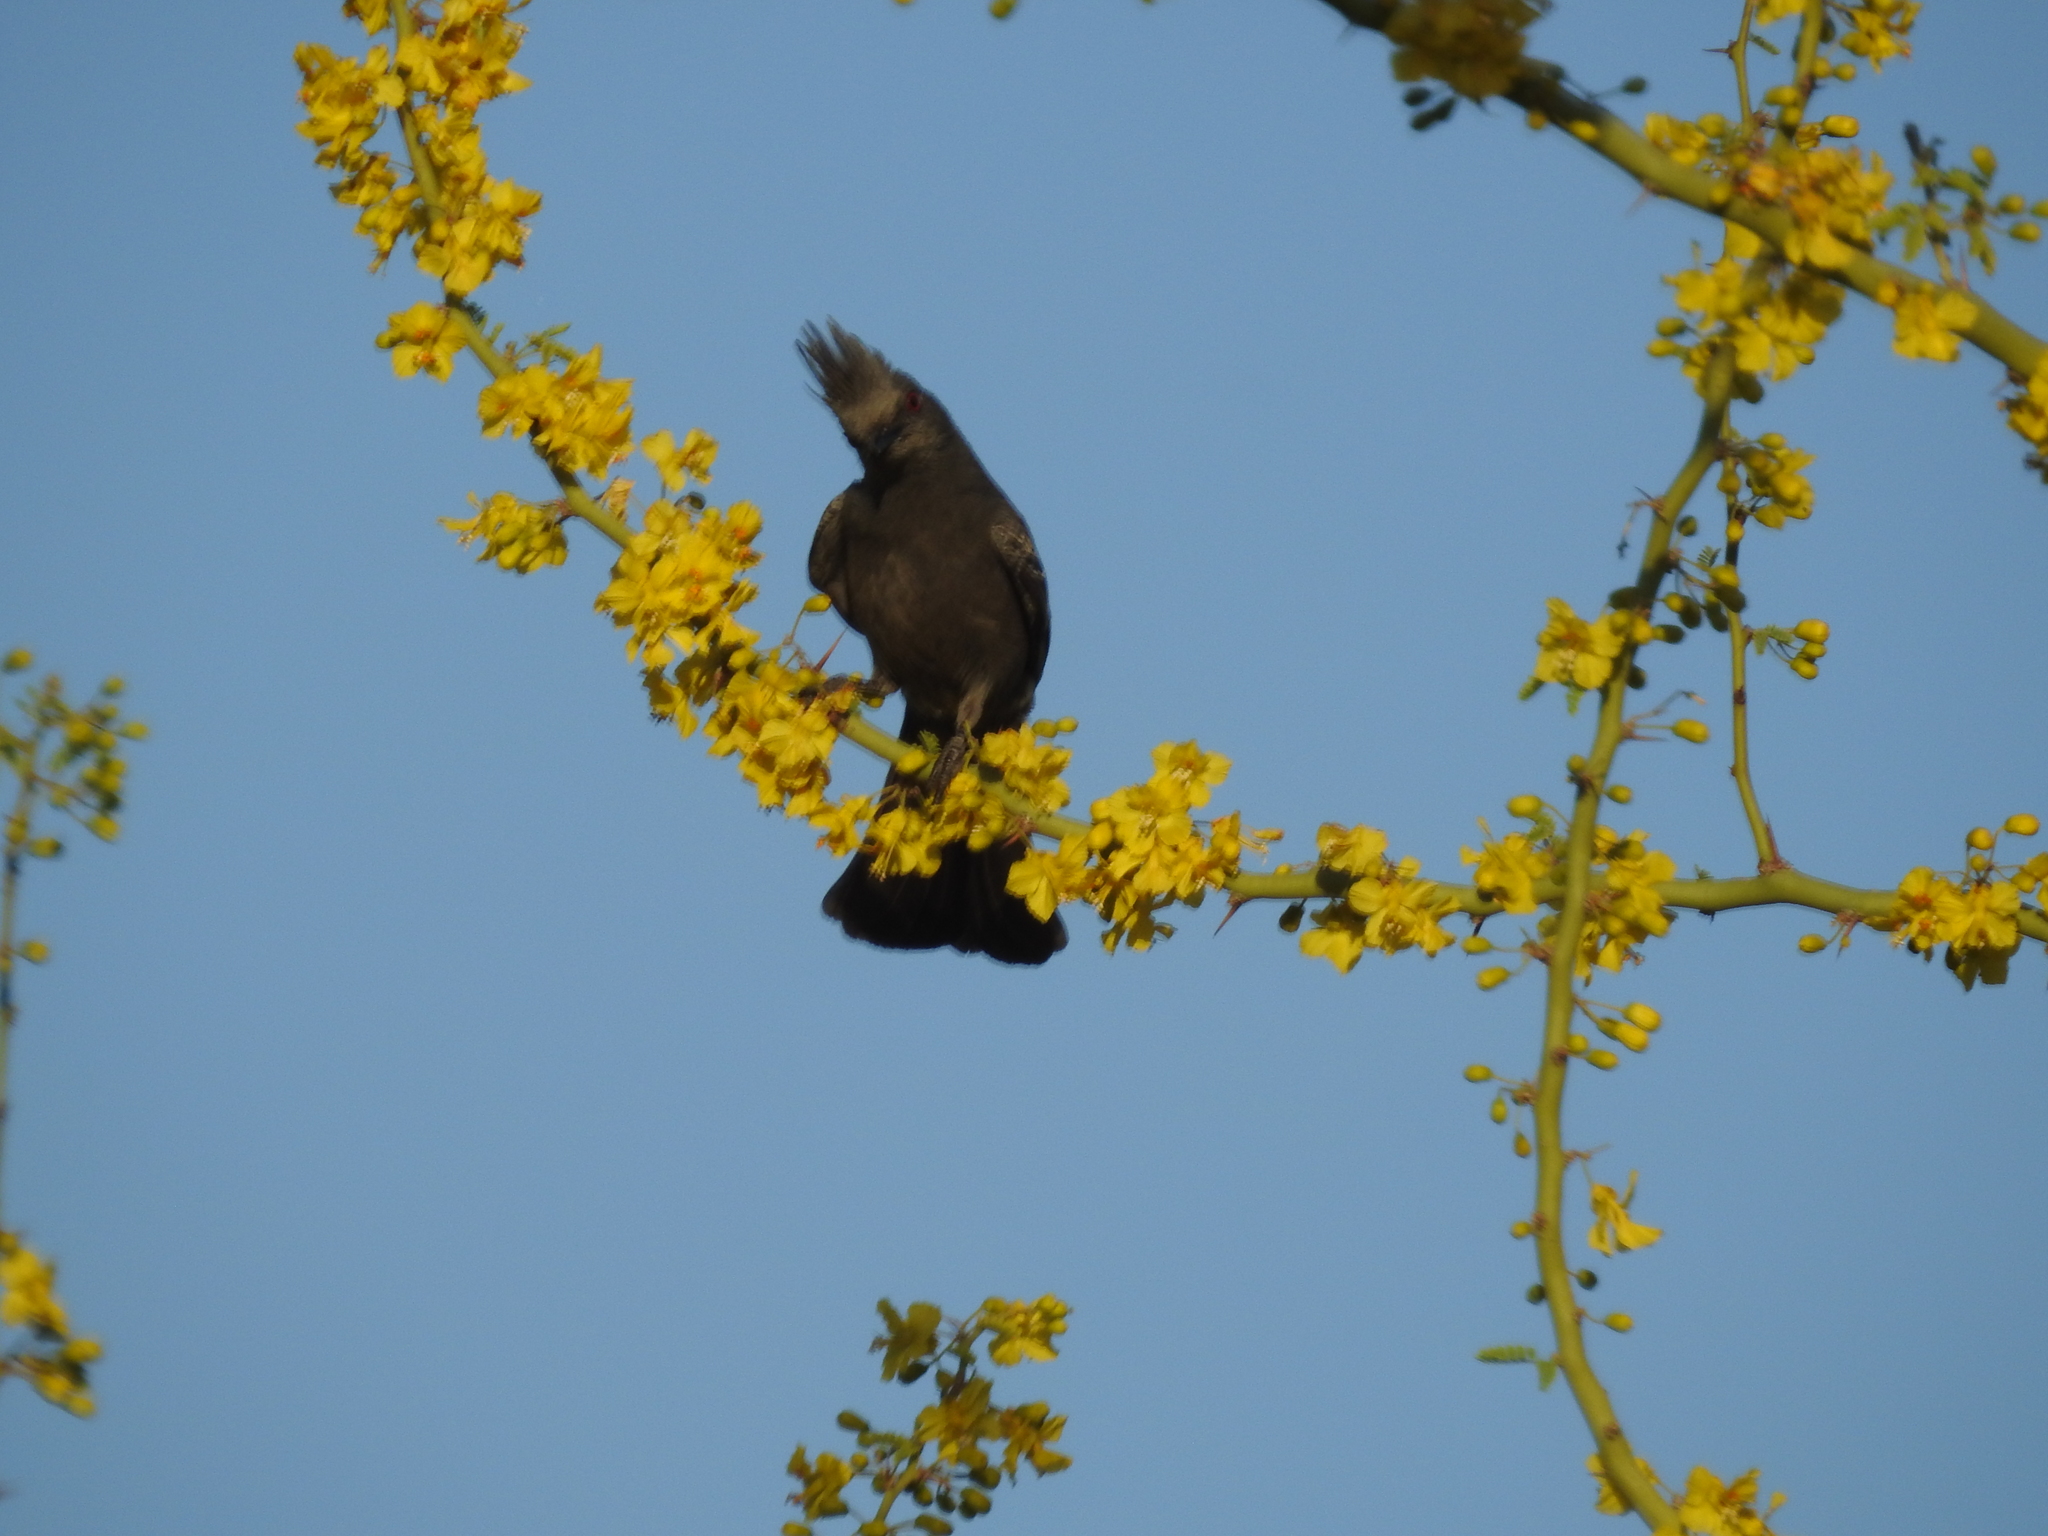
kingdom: Animalia
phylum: Chordata
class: Aves
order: Passeriformes
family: Ptilogonatidae
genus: Phainopepla
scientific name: Phainopepla nitens
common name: Phainopepla
